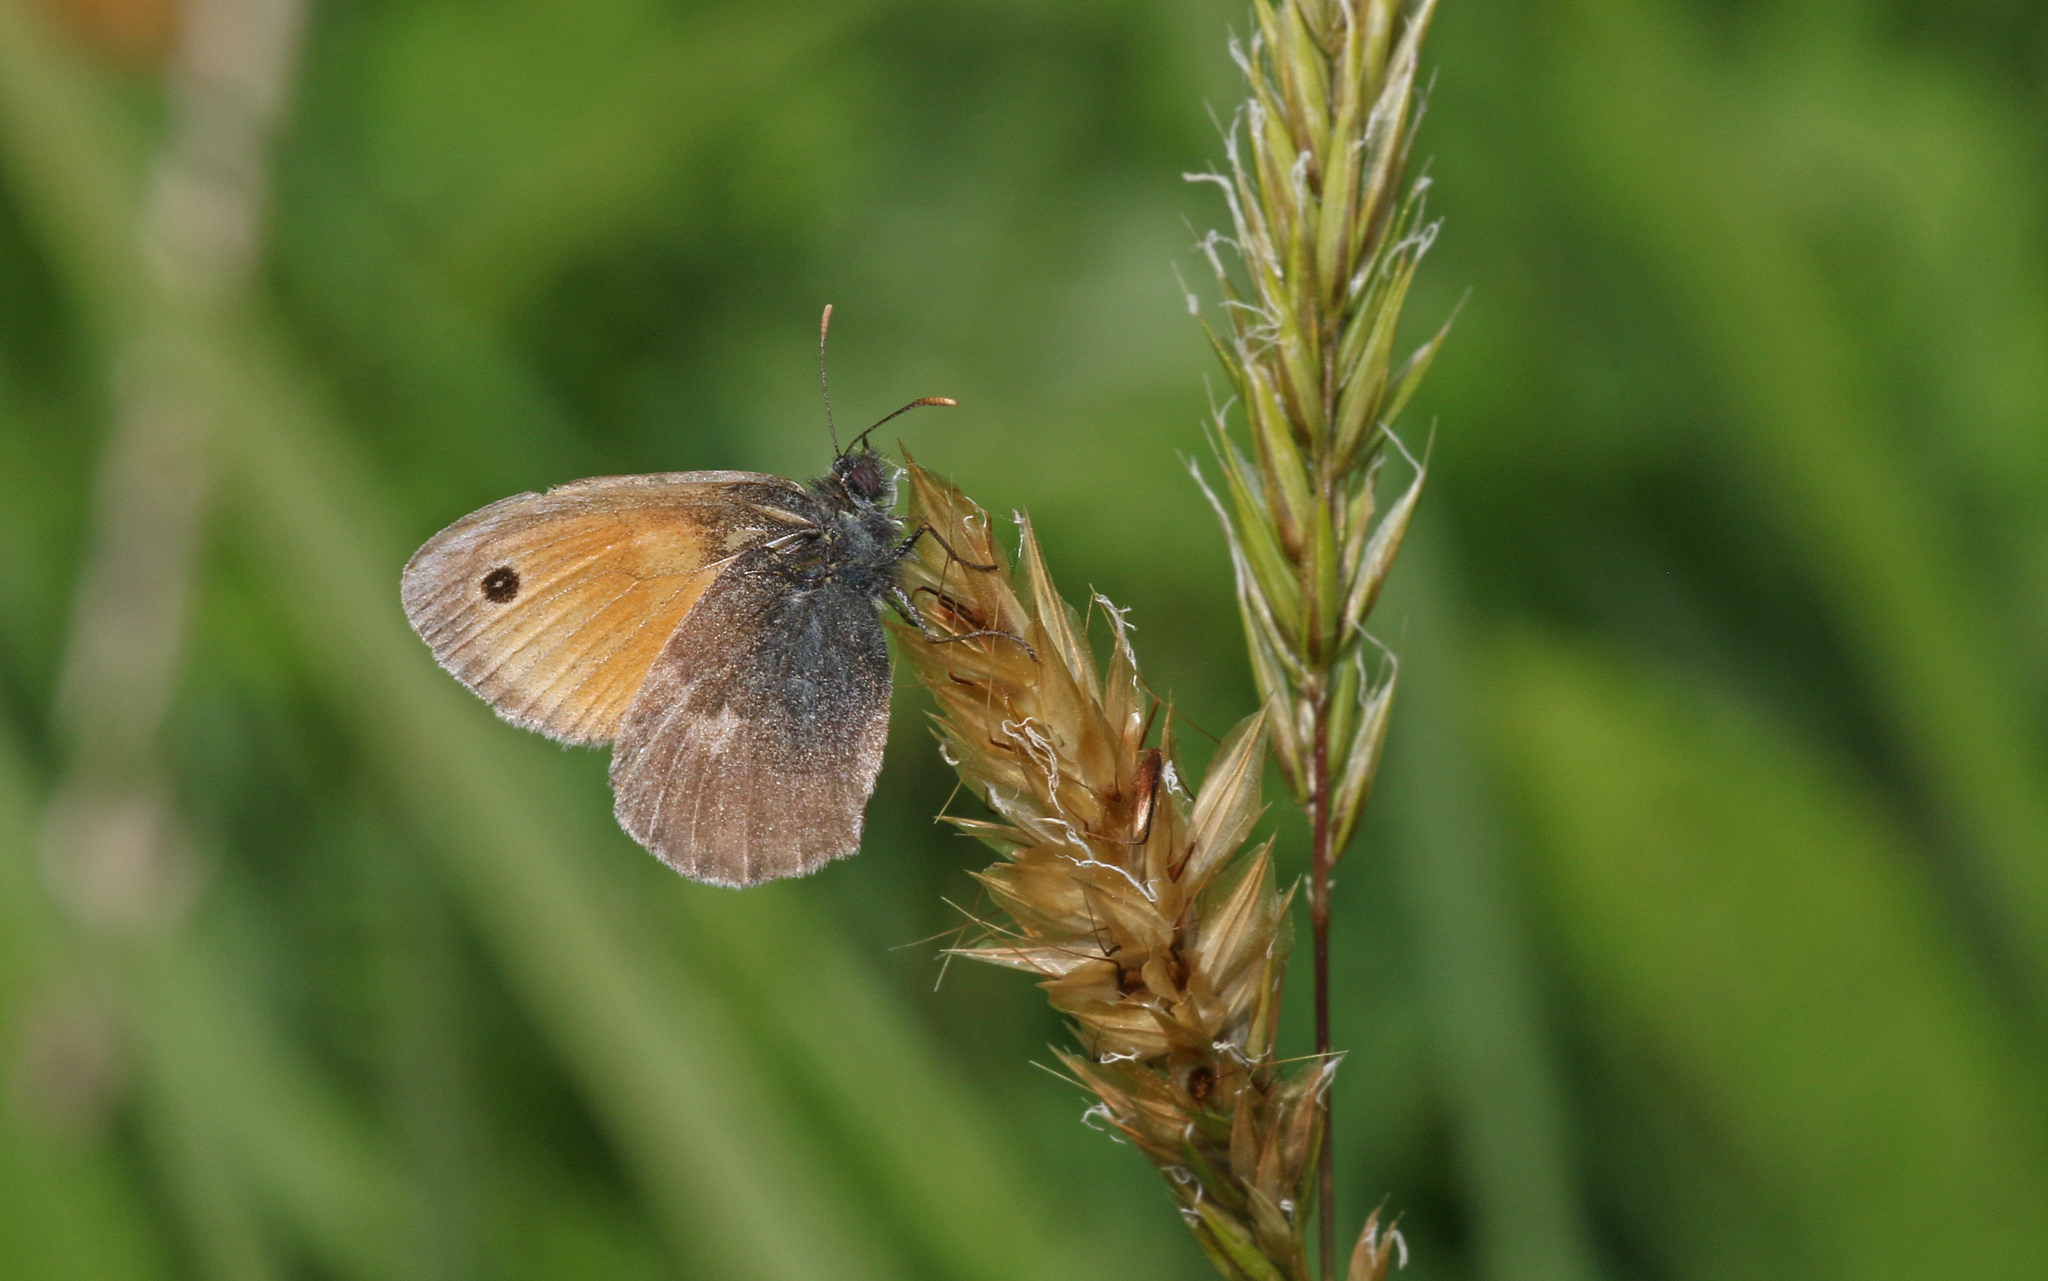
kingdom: Animalia
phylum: Arthropoda
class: Insecta
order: Lepidoptera
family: Nymphalidae
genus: Coenonympha
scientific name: Coenonympha pamphilus
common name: Small heath
